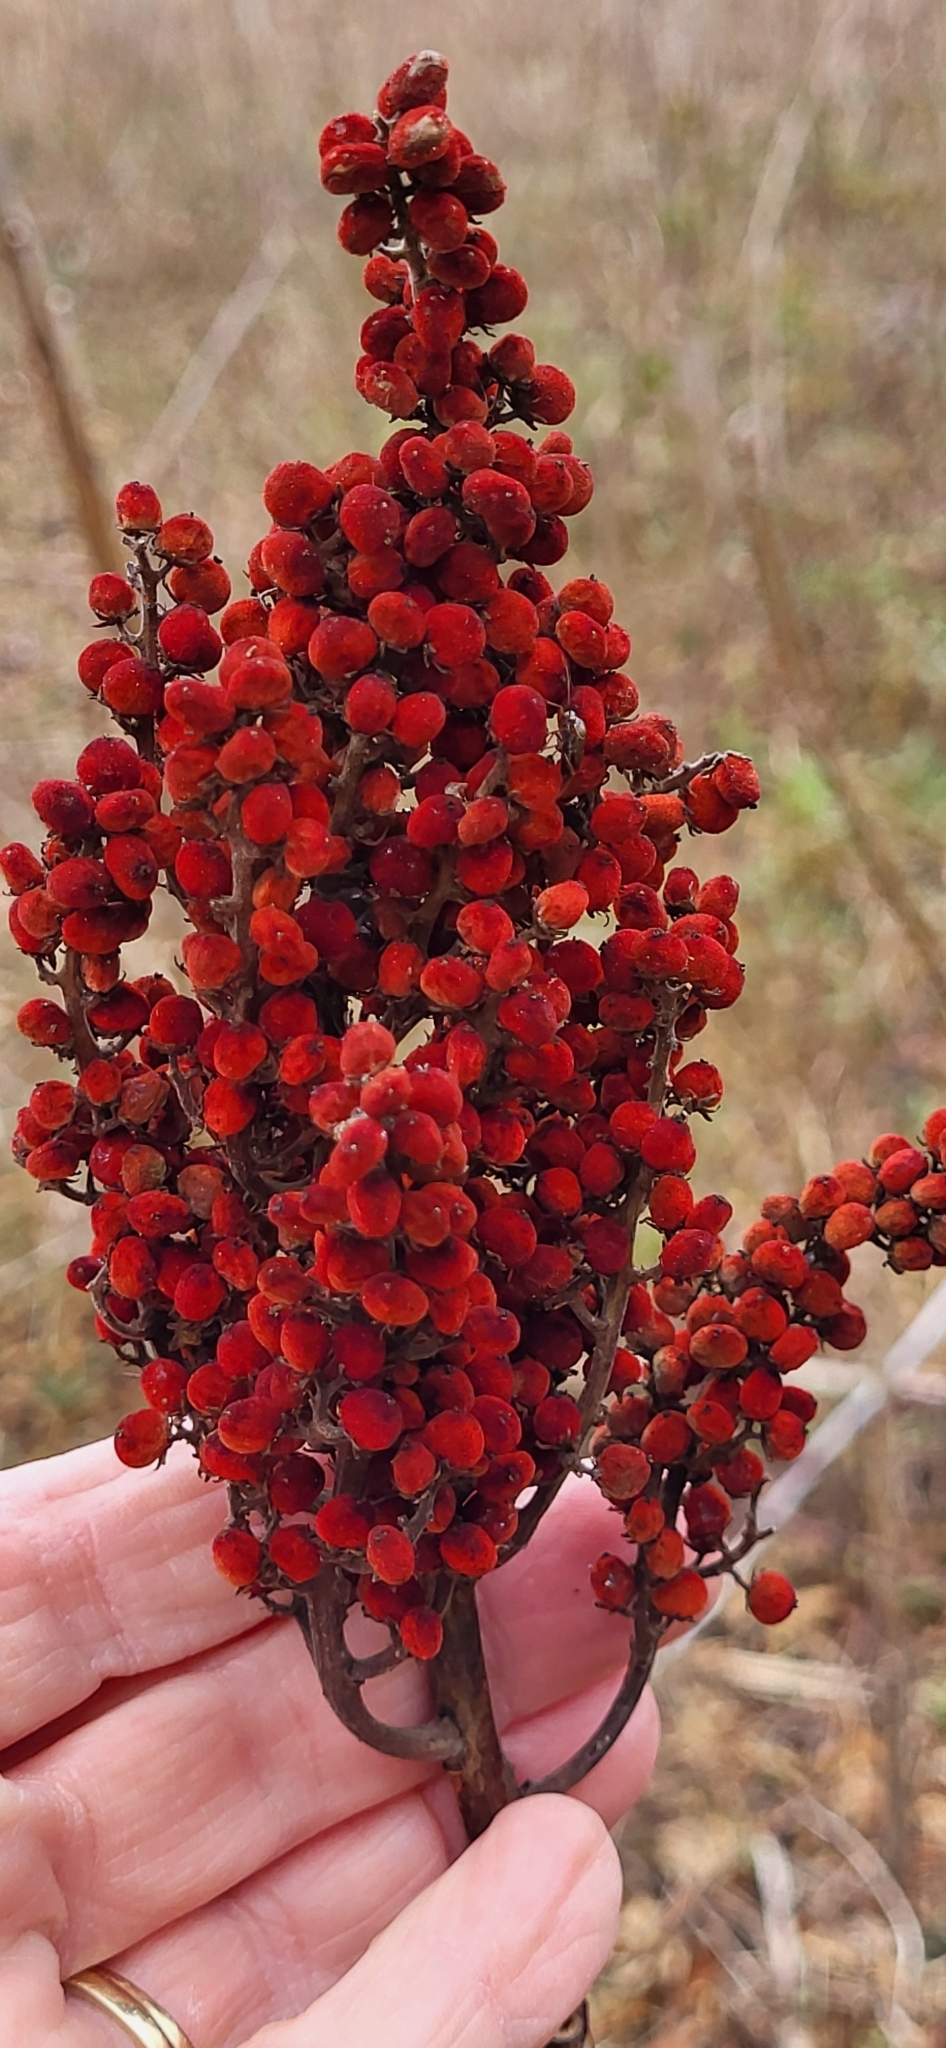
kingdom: Plantae
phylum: Tracheophyta
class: Magnoliopsida
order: Sapindales
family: Anacardiaceae
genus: Rhus
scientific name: Rhus glabra
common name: Scarlet sumac
